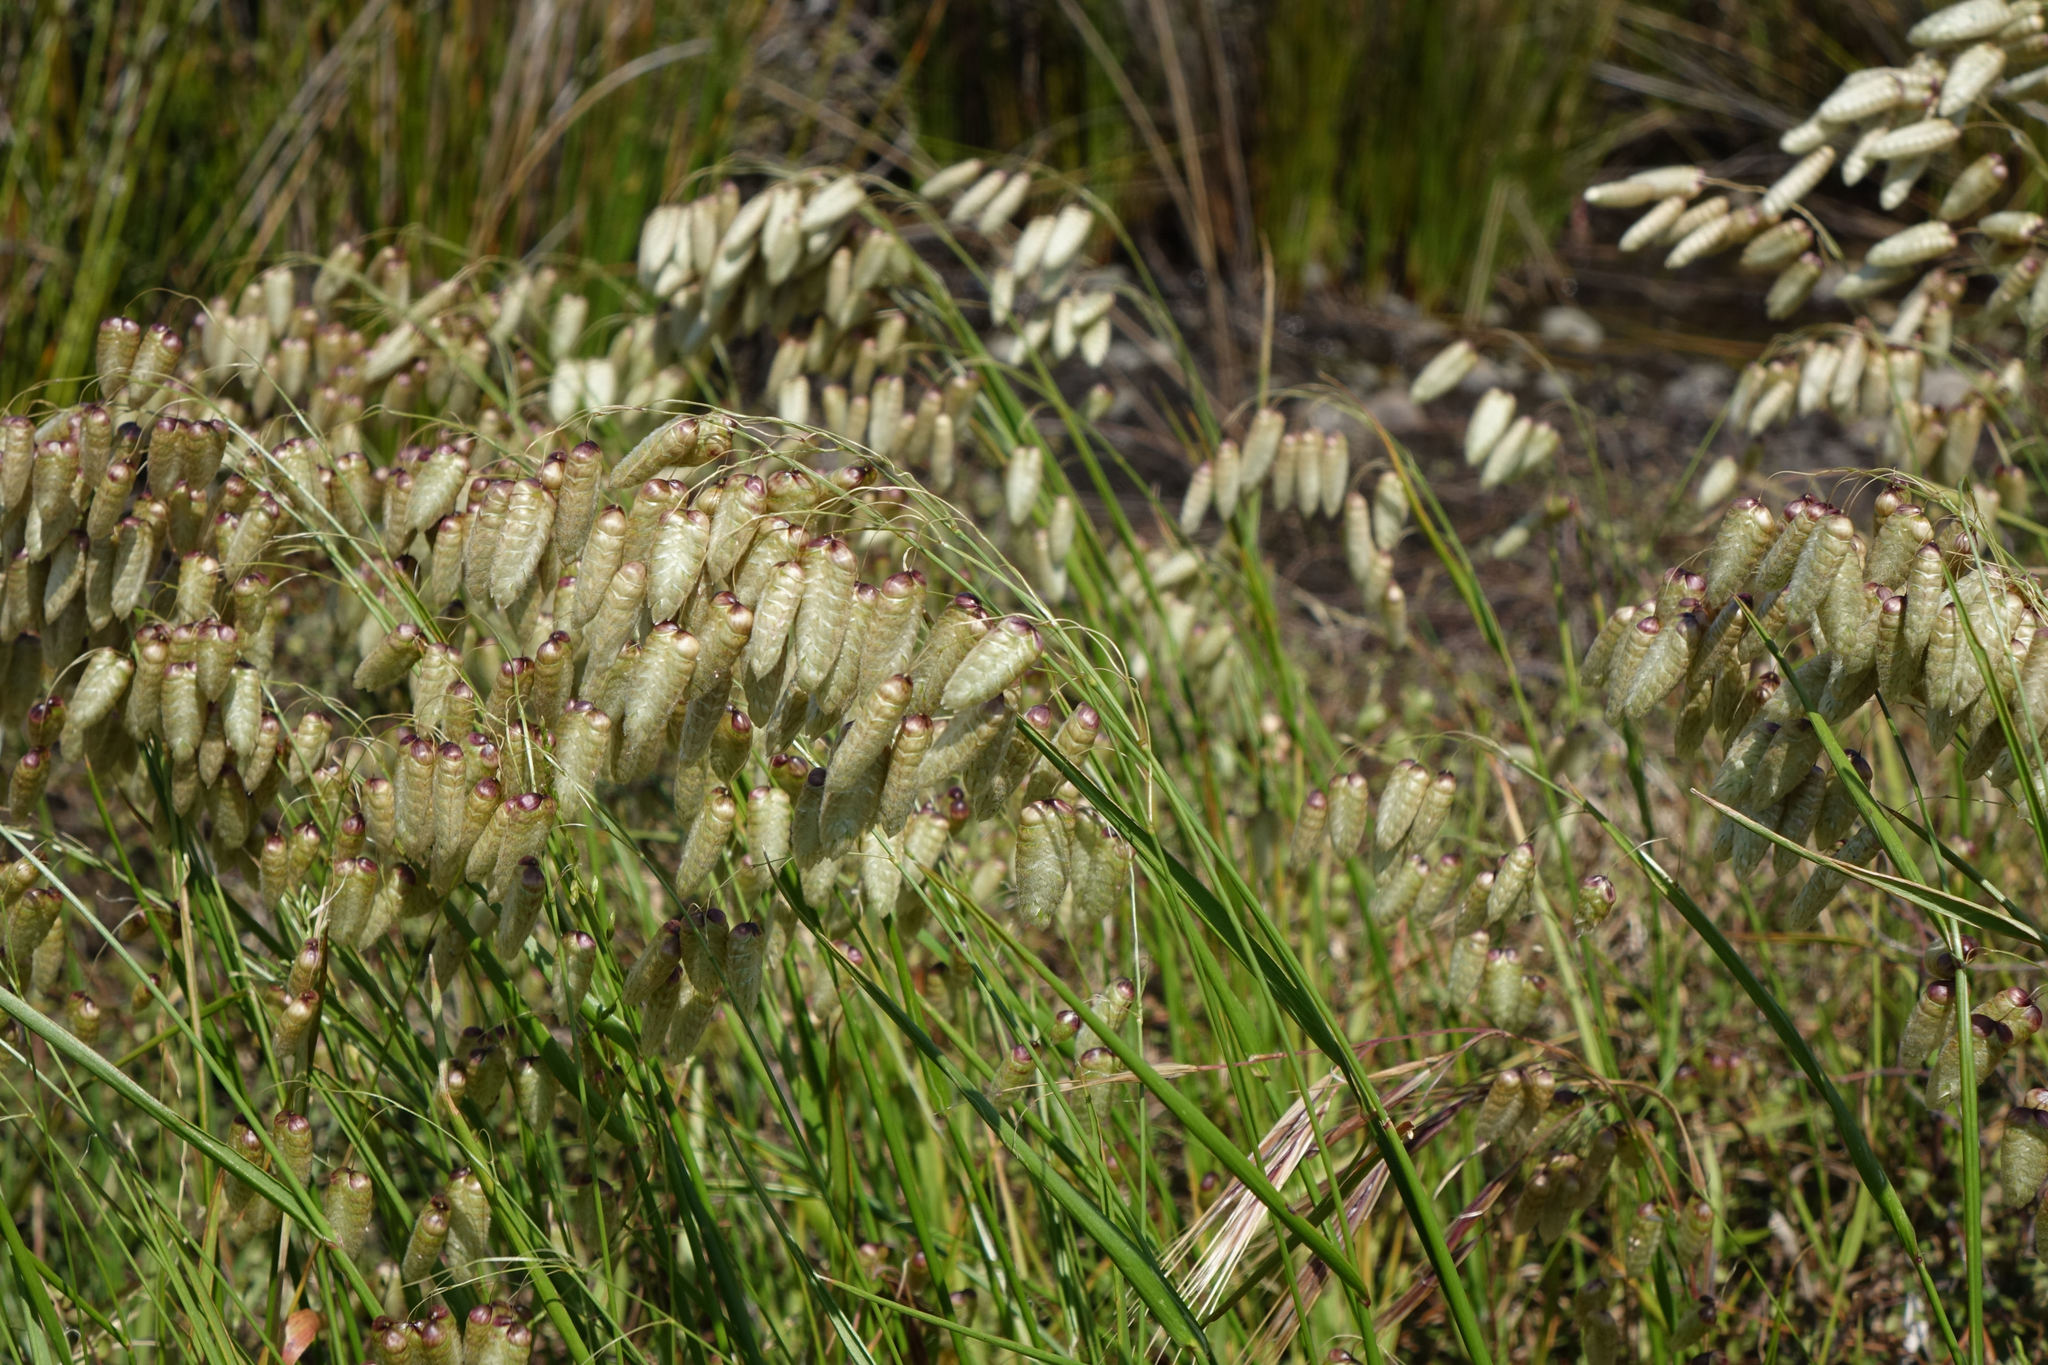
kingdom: Plantae
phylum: Tracheophyta
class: Liliopsida
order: Poales
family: Poaceae
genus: Briza
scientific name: Briza maxima
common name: Big quakinggrass
